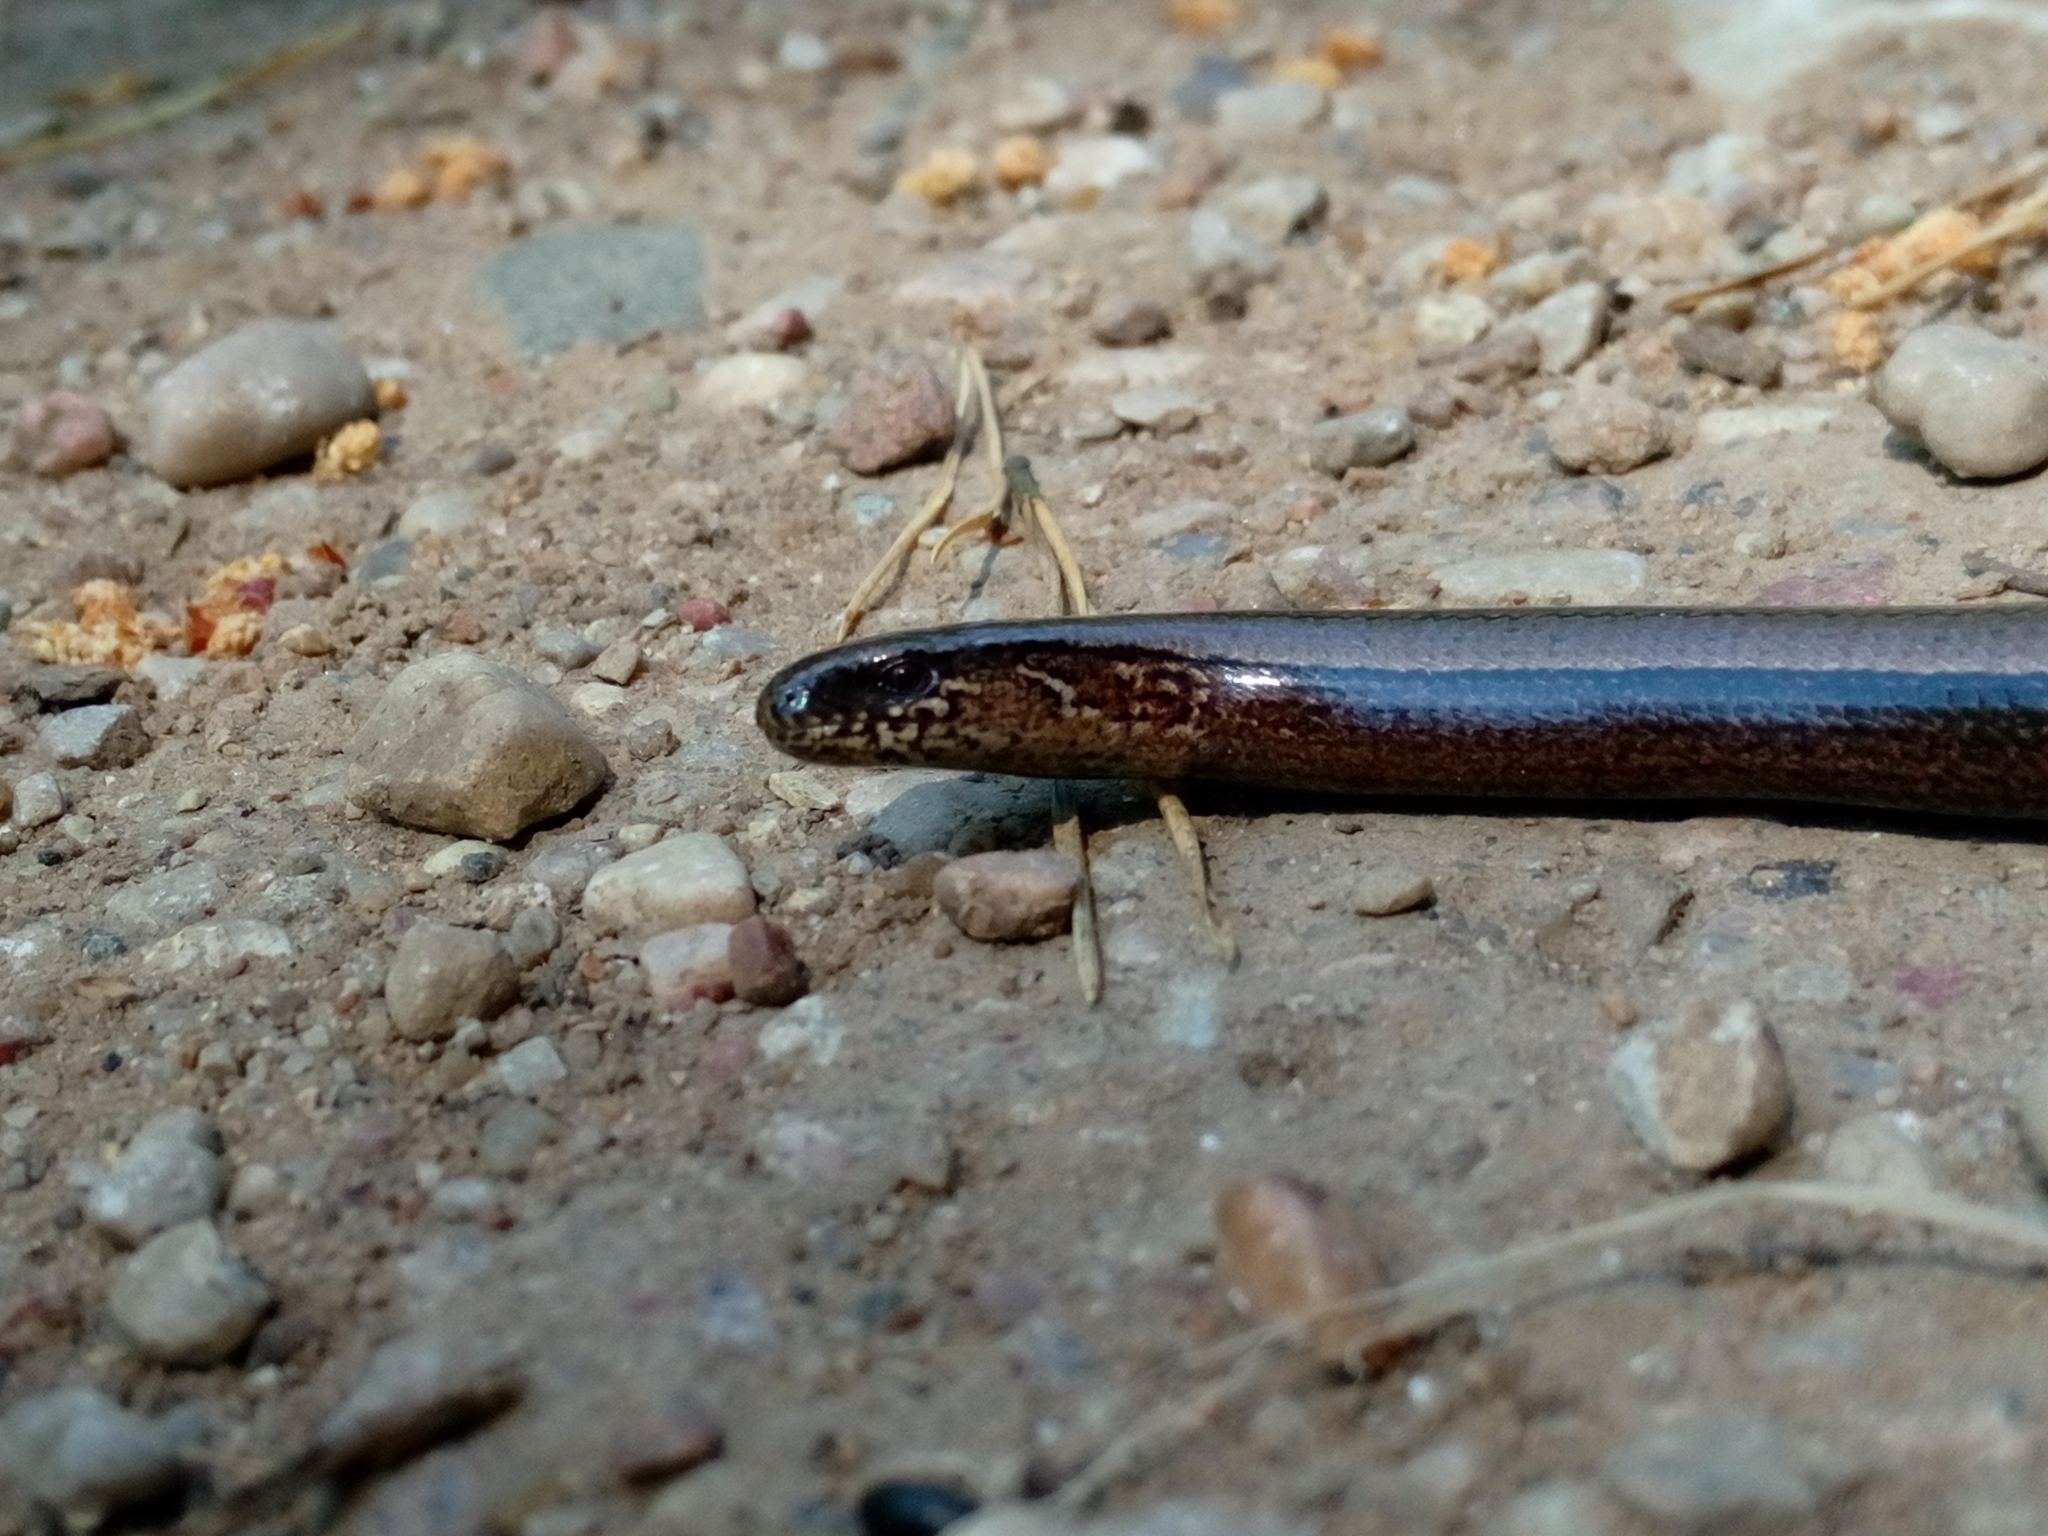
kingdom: Animalia
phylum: Chordata
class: Squamata
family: Anguidae
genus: Anguis
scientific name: Anguis fragilis
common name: Slow worm
